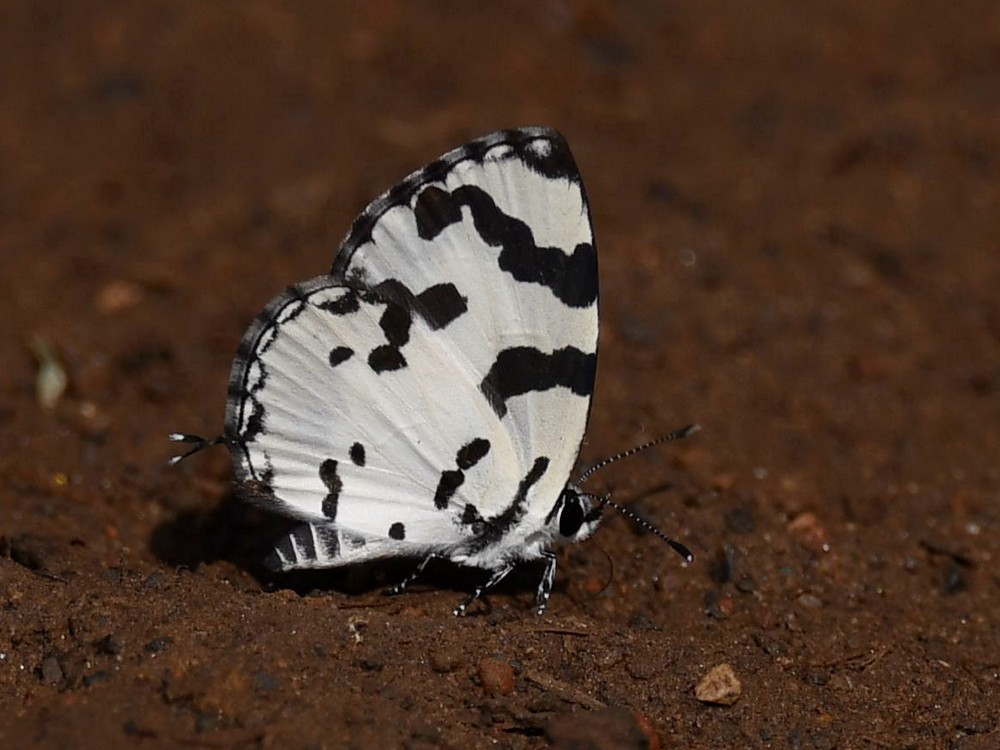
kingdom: Animalia
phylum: Arthropoda
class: Insecta
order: Lepidoptera
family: Lycaenidae
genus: Caleta
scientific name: Caleta decidia
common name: Angled pierrot
